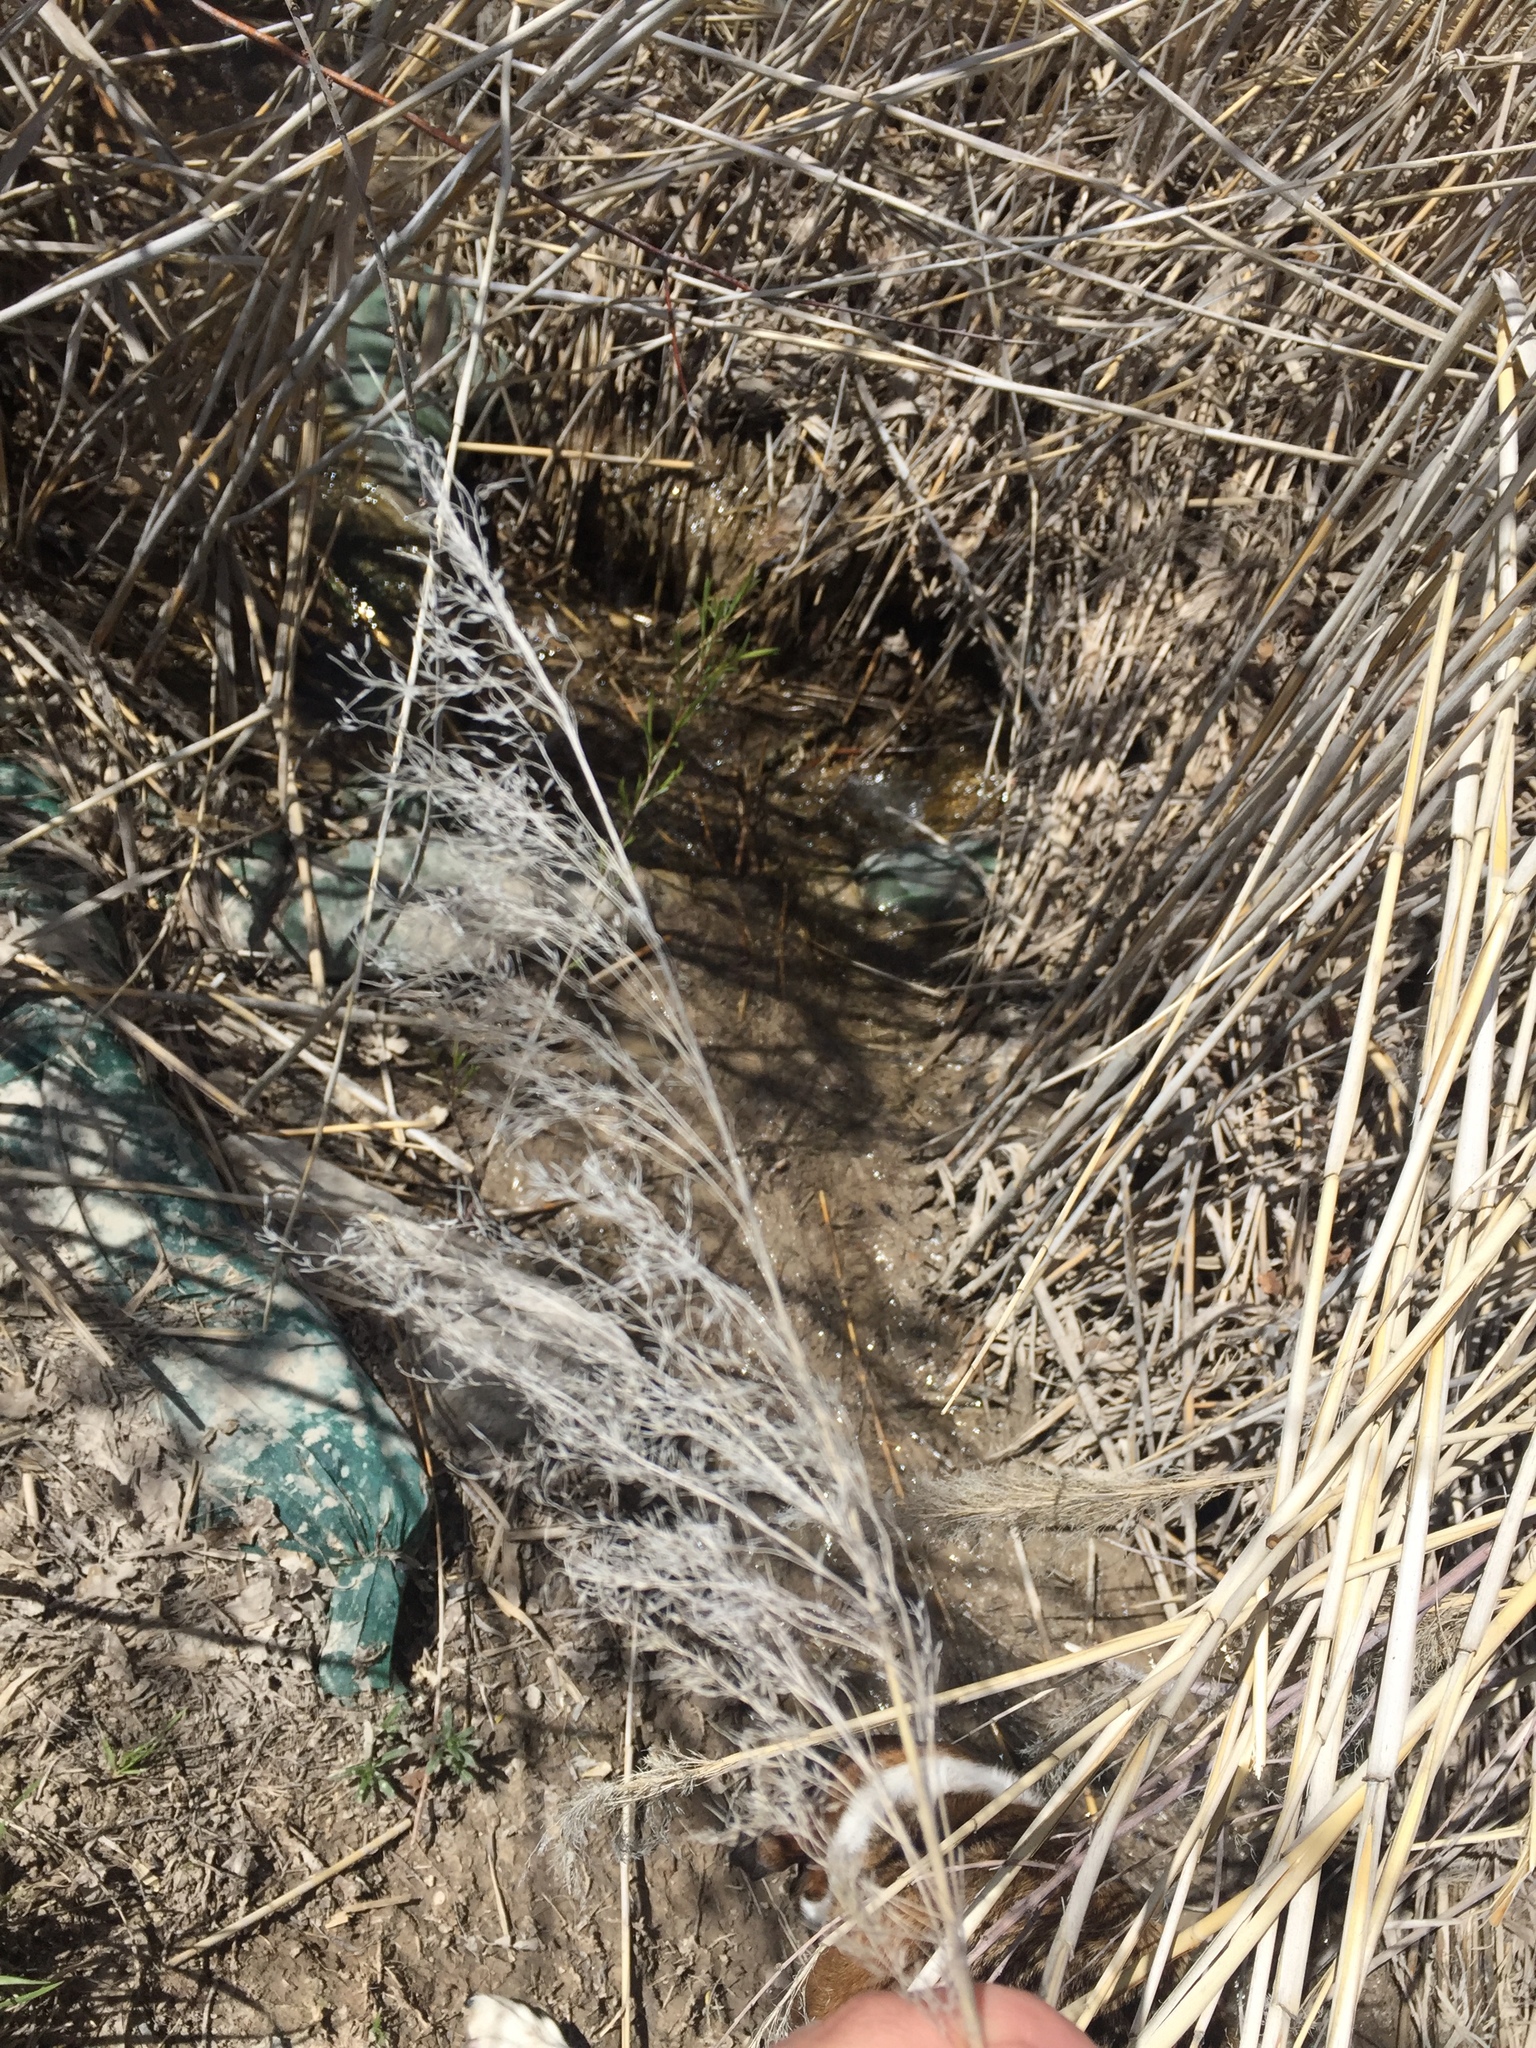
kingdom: Plantae
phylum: Tracheophyta
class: Liliopsida
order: Poales
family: Poaceae
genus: Phragmites
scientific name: Phragmites australis
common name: Common reed
